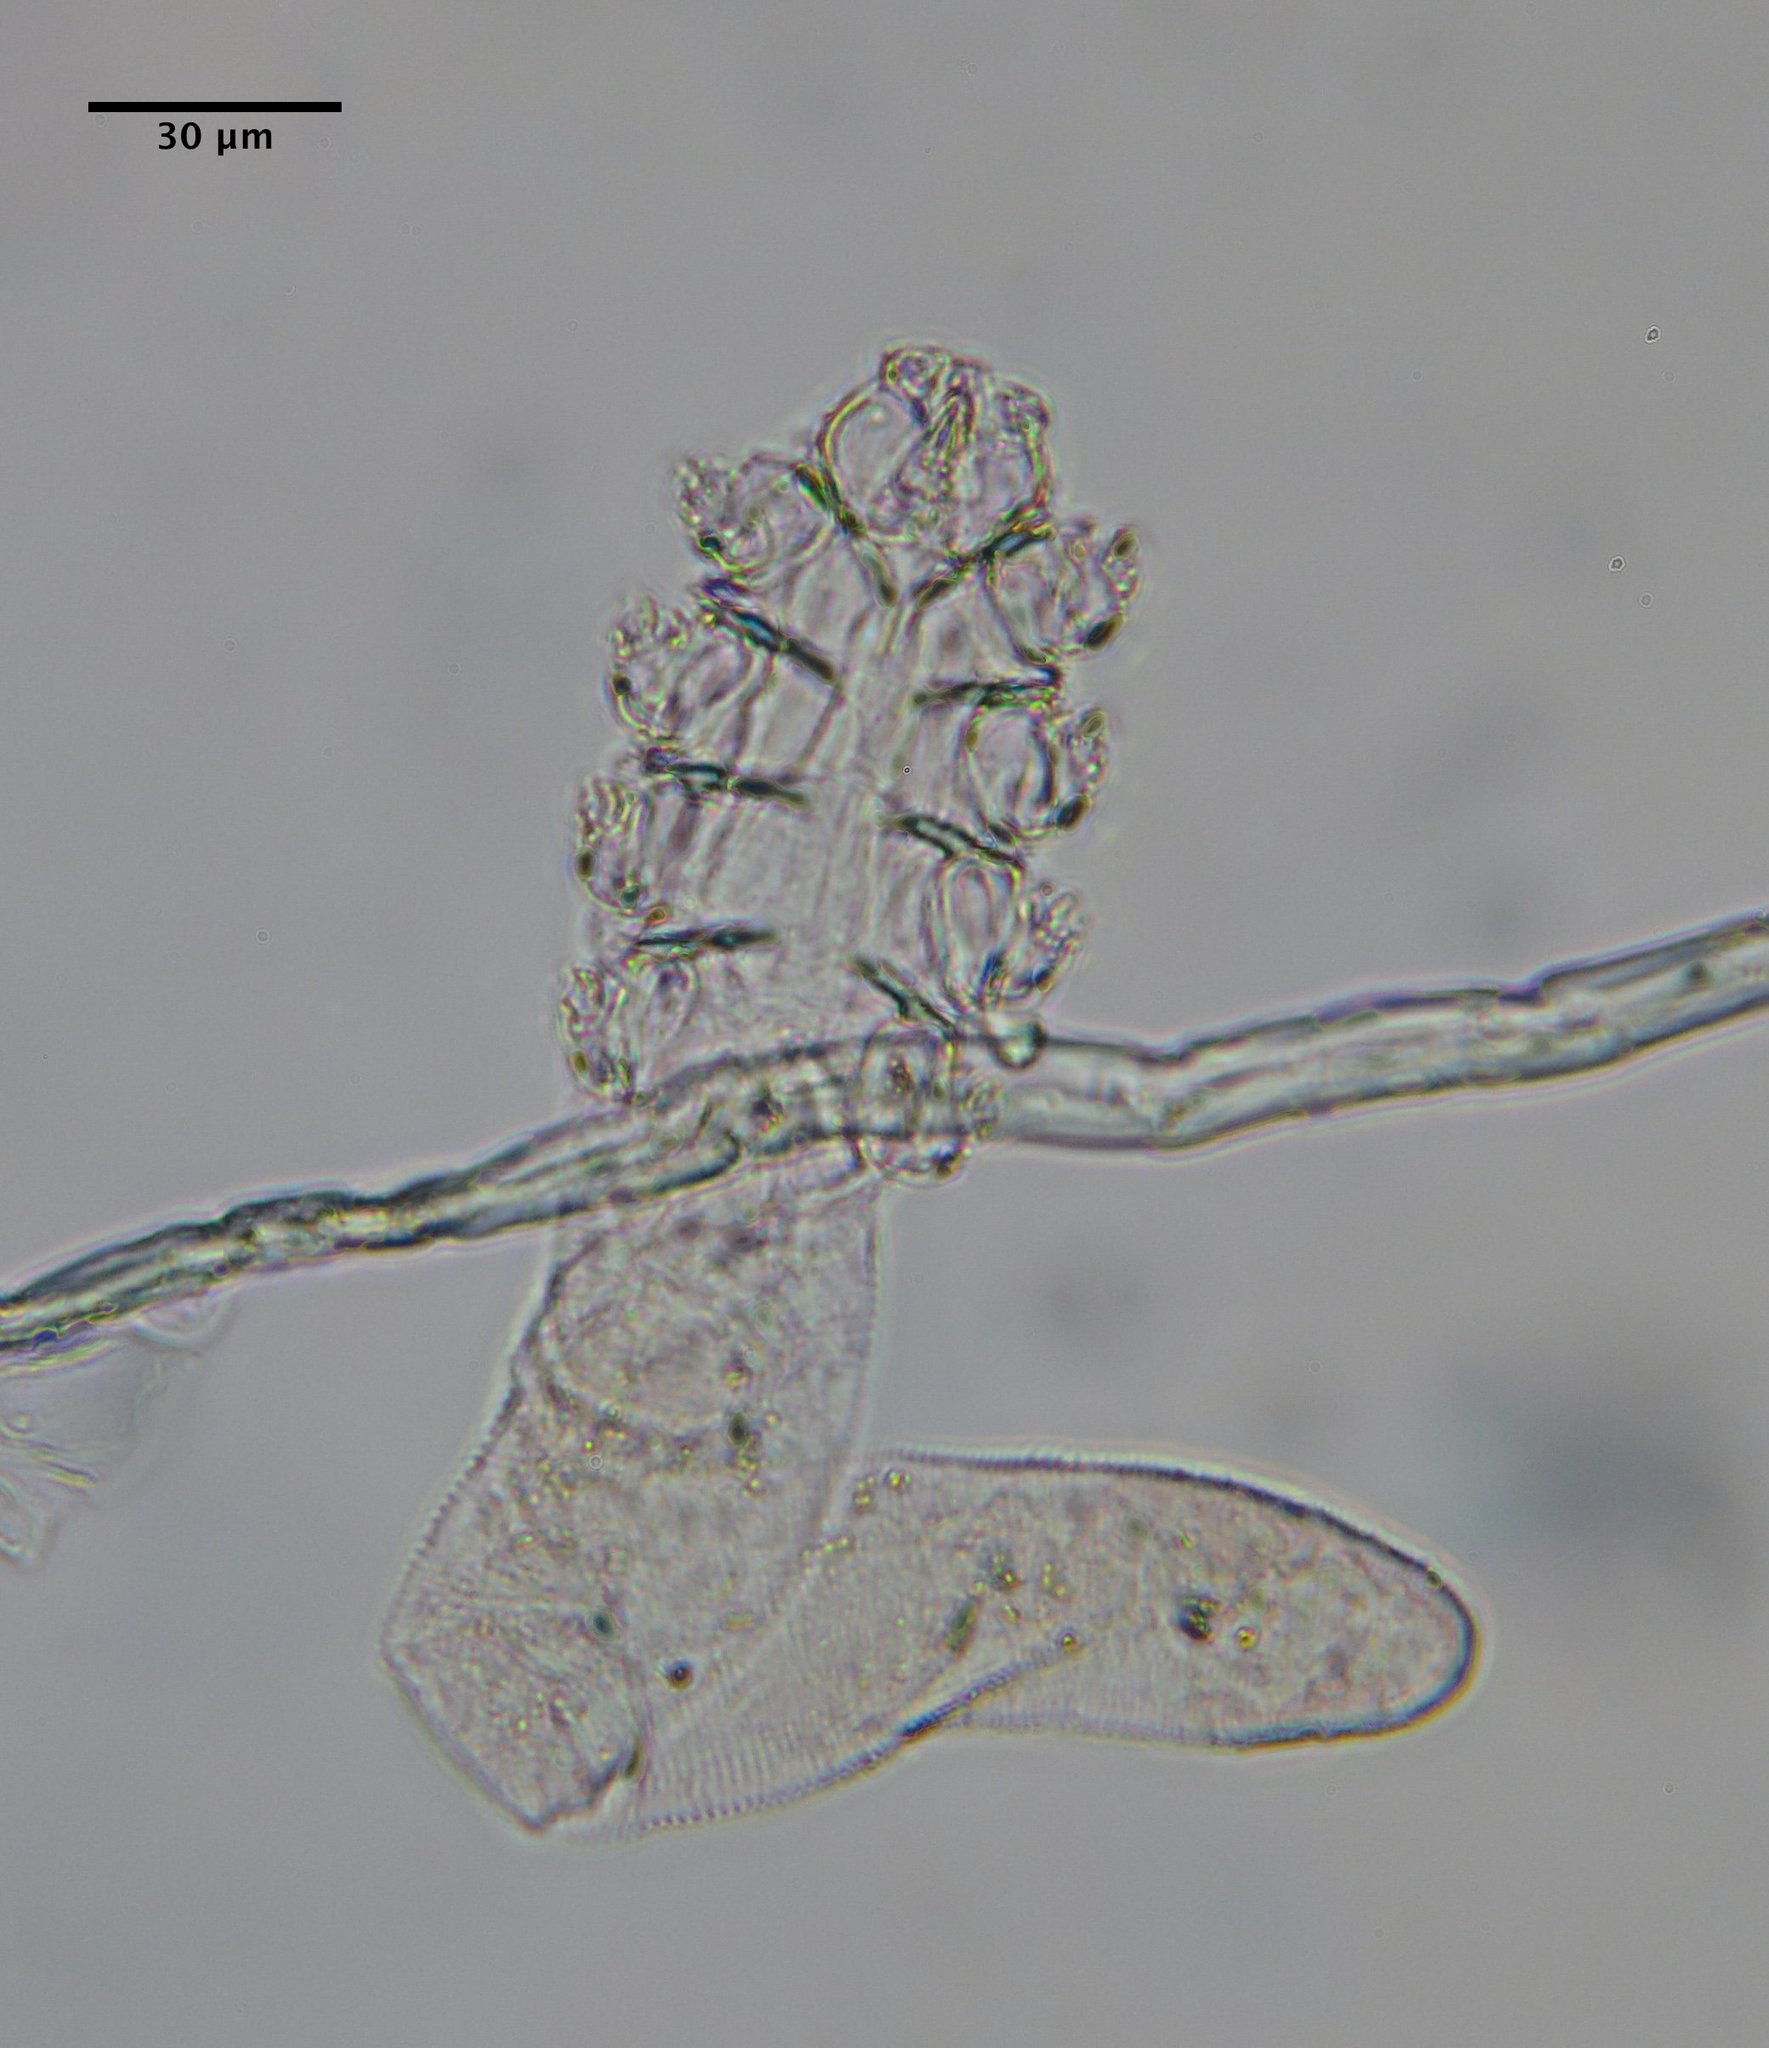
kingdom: Animalia
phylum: Arthropoda
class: Arachnida
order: Trombidiformes
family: Demodecidae
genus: Demodex
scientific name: Demodex folliculorum
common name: Follicle mite
